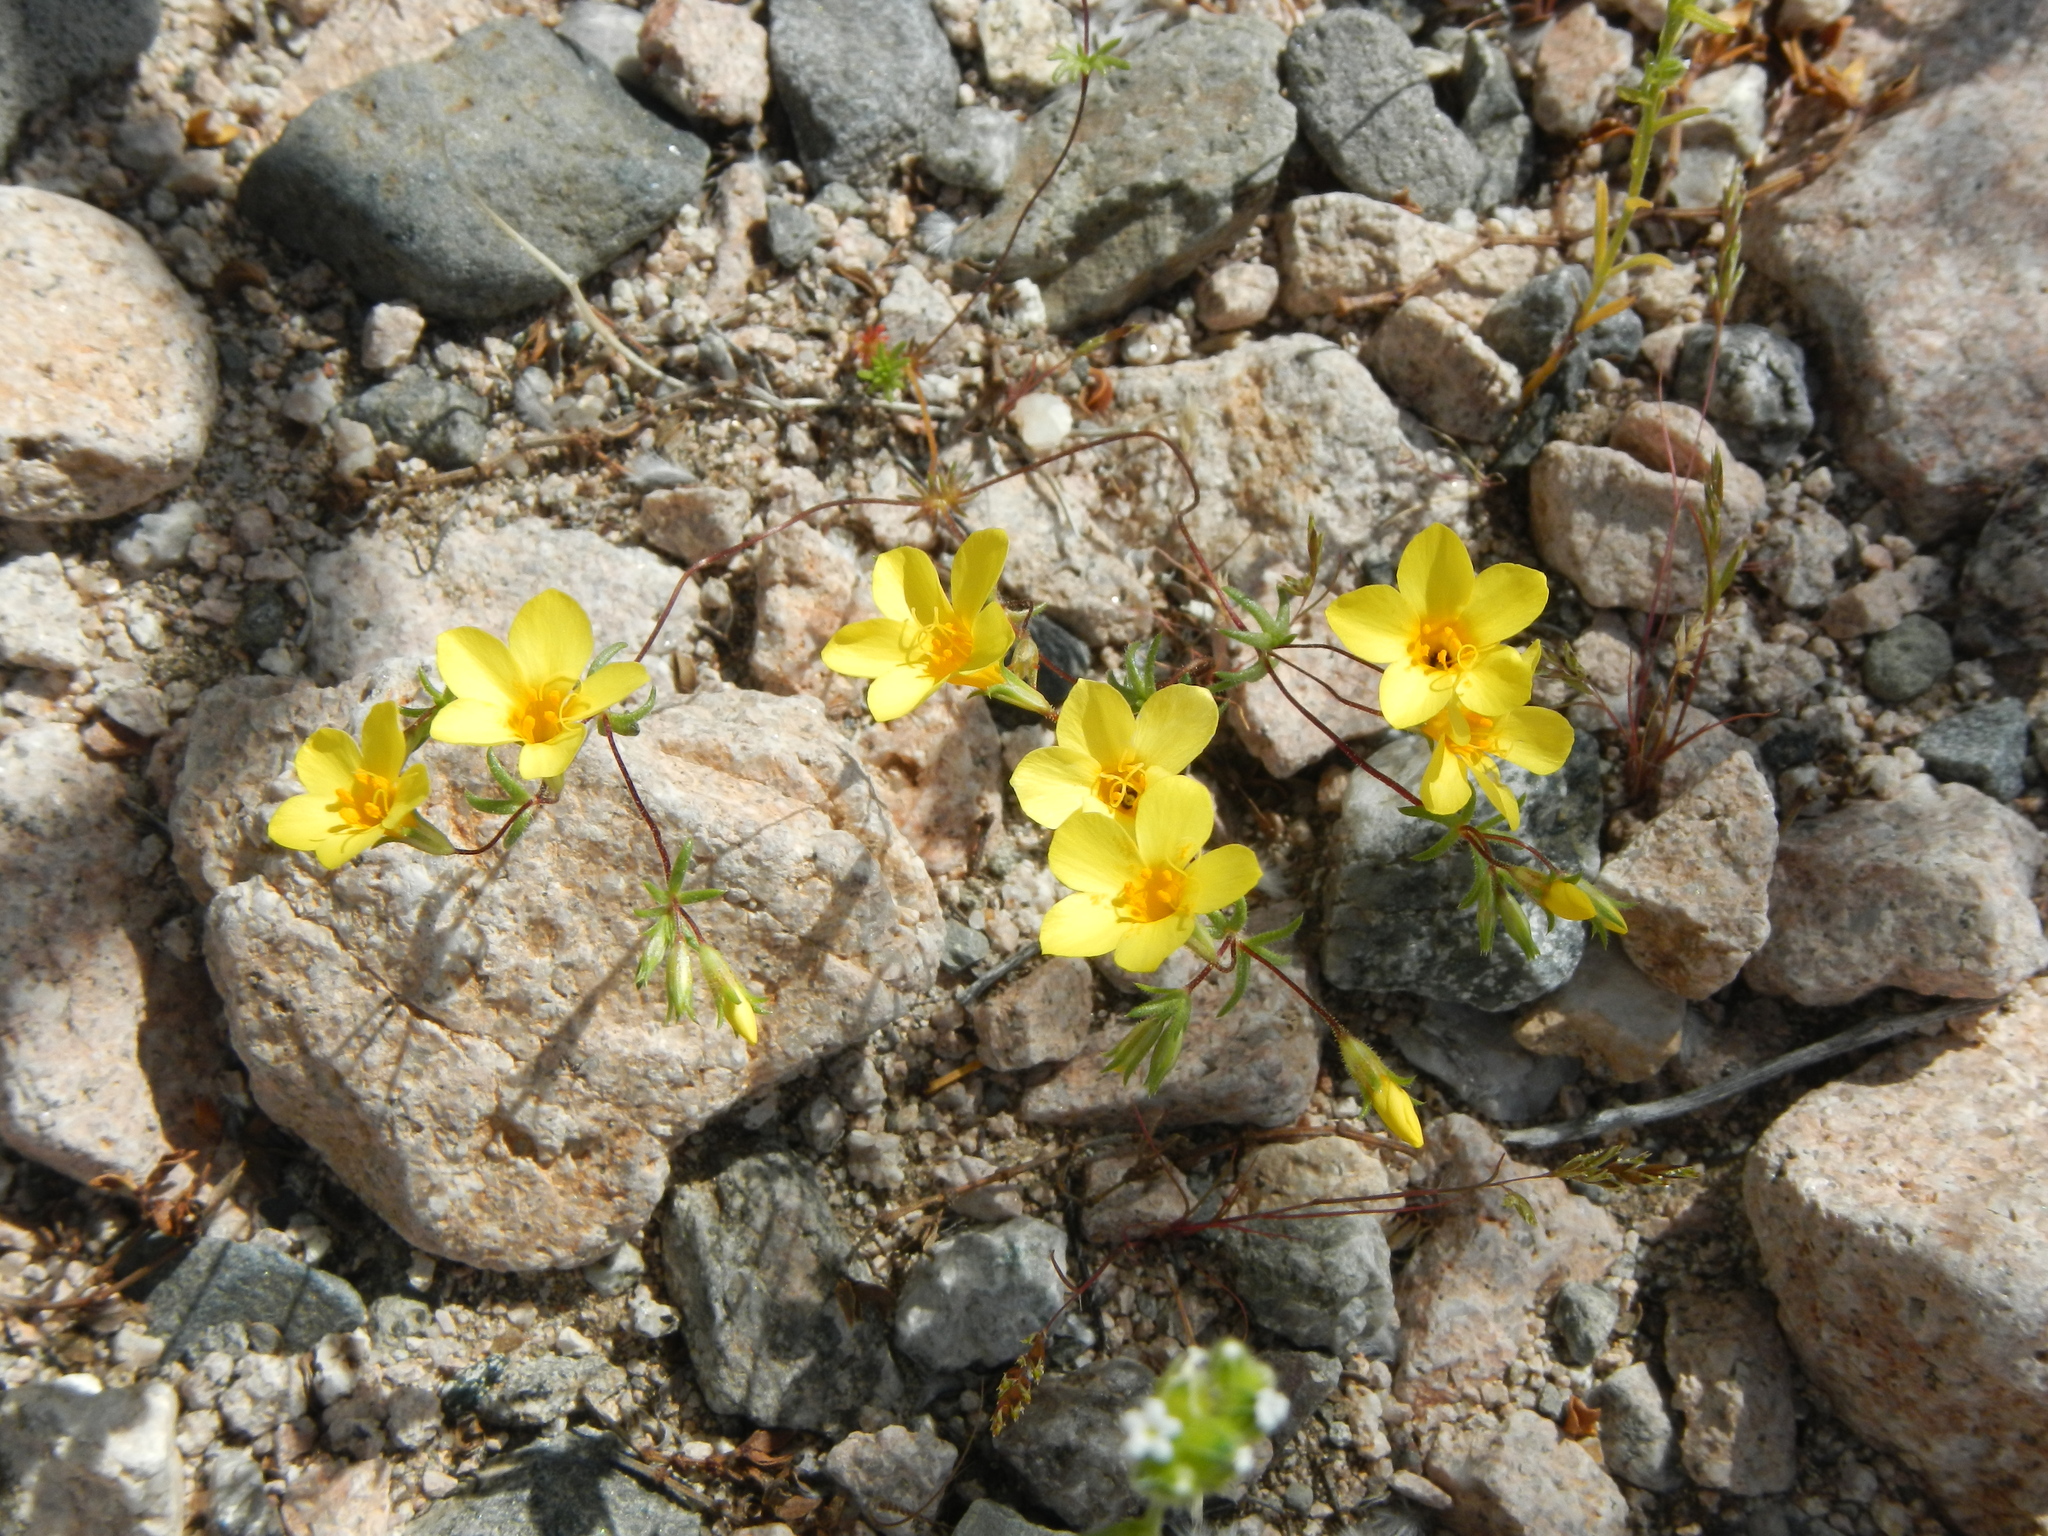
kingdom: Plantae
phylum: Tracheophyta
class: Magnoliopsida
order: Ericales
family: Polemoniaceae
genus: Leptosiphon
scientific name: Leptosiphon chrysanthus
